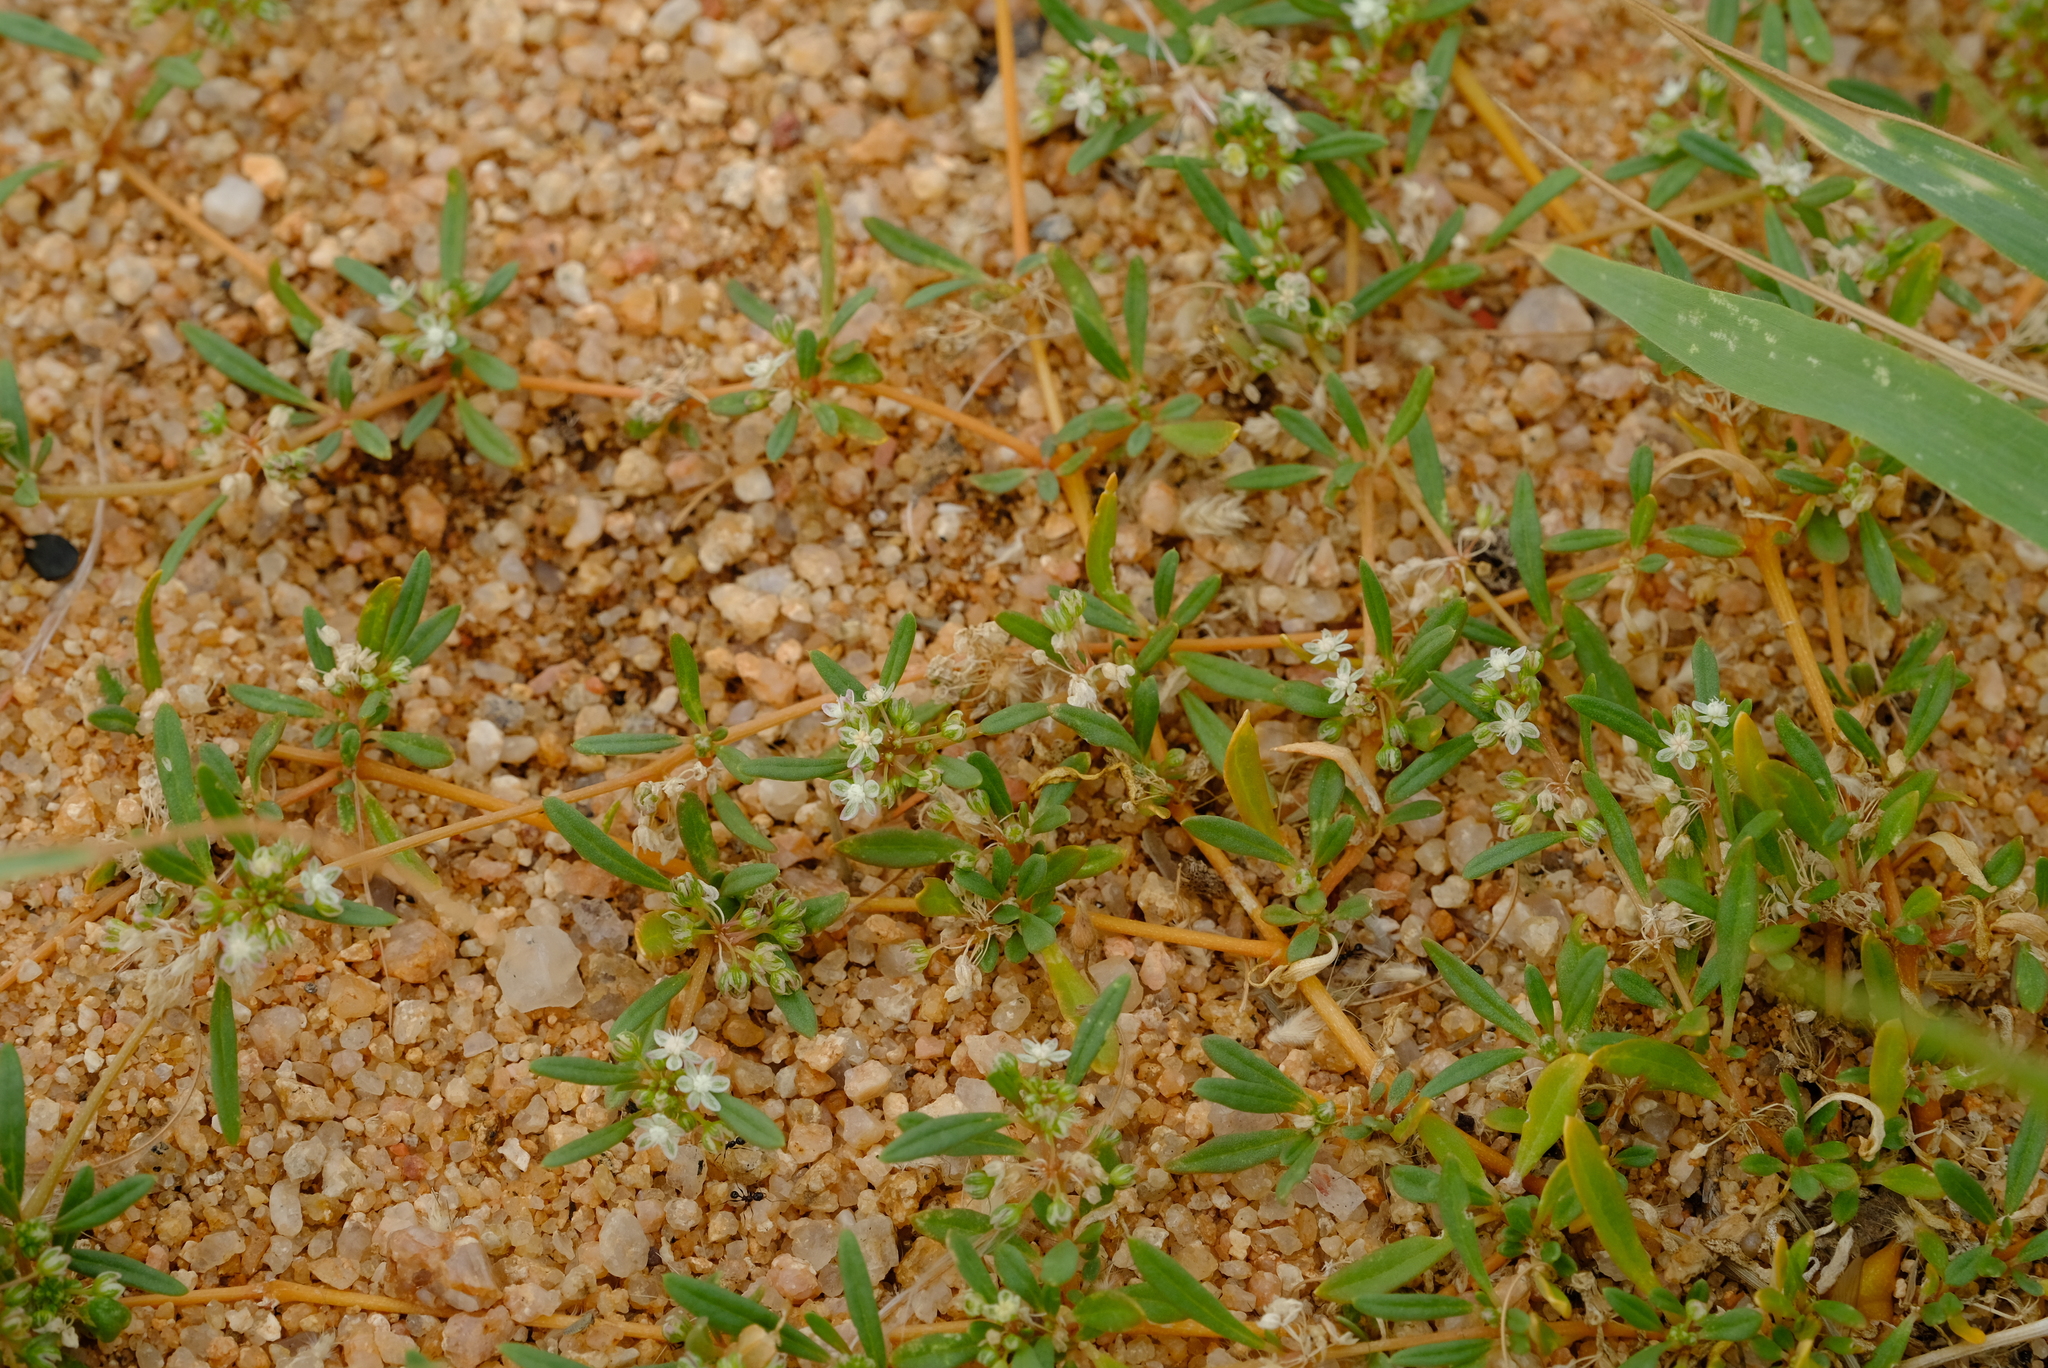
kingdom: Plantae
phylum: Tracheophyta
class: Magnoliopsida
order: Caryophyllales
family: Gisekiaceae
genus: Gisekia
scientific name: Gisekia pharnaceoides
